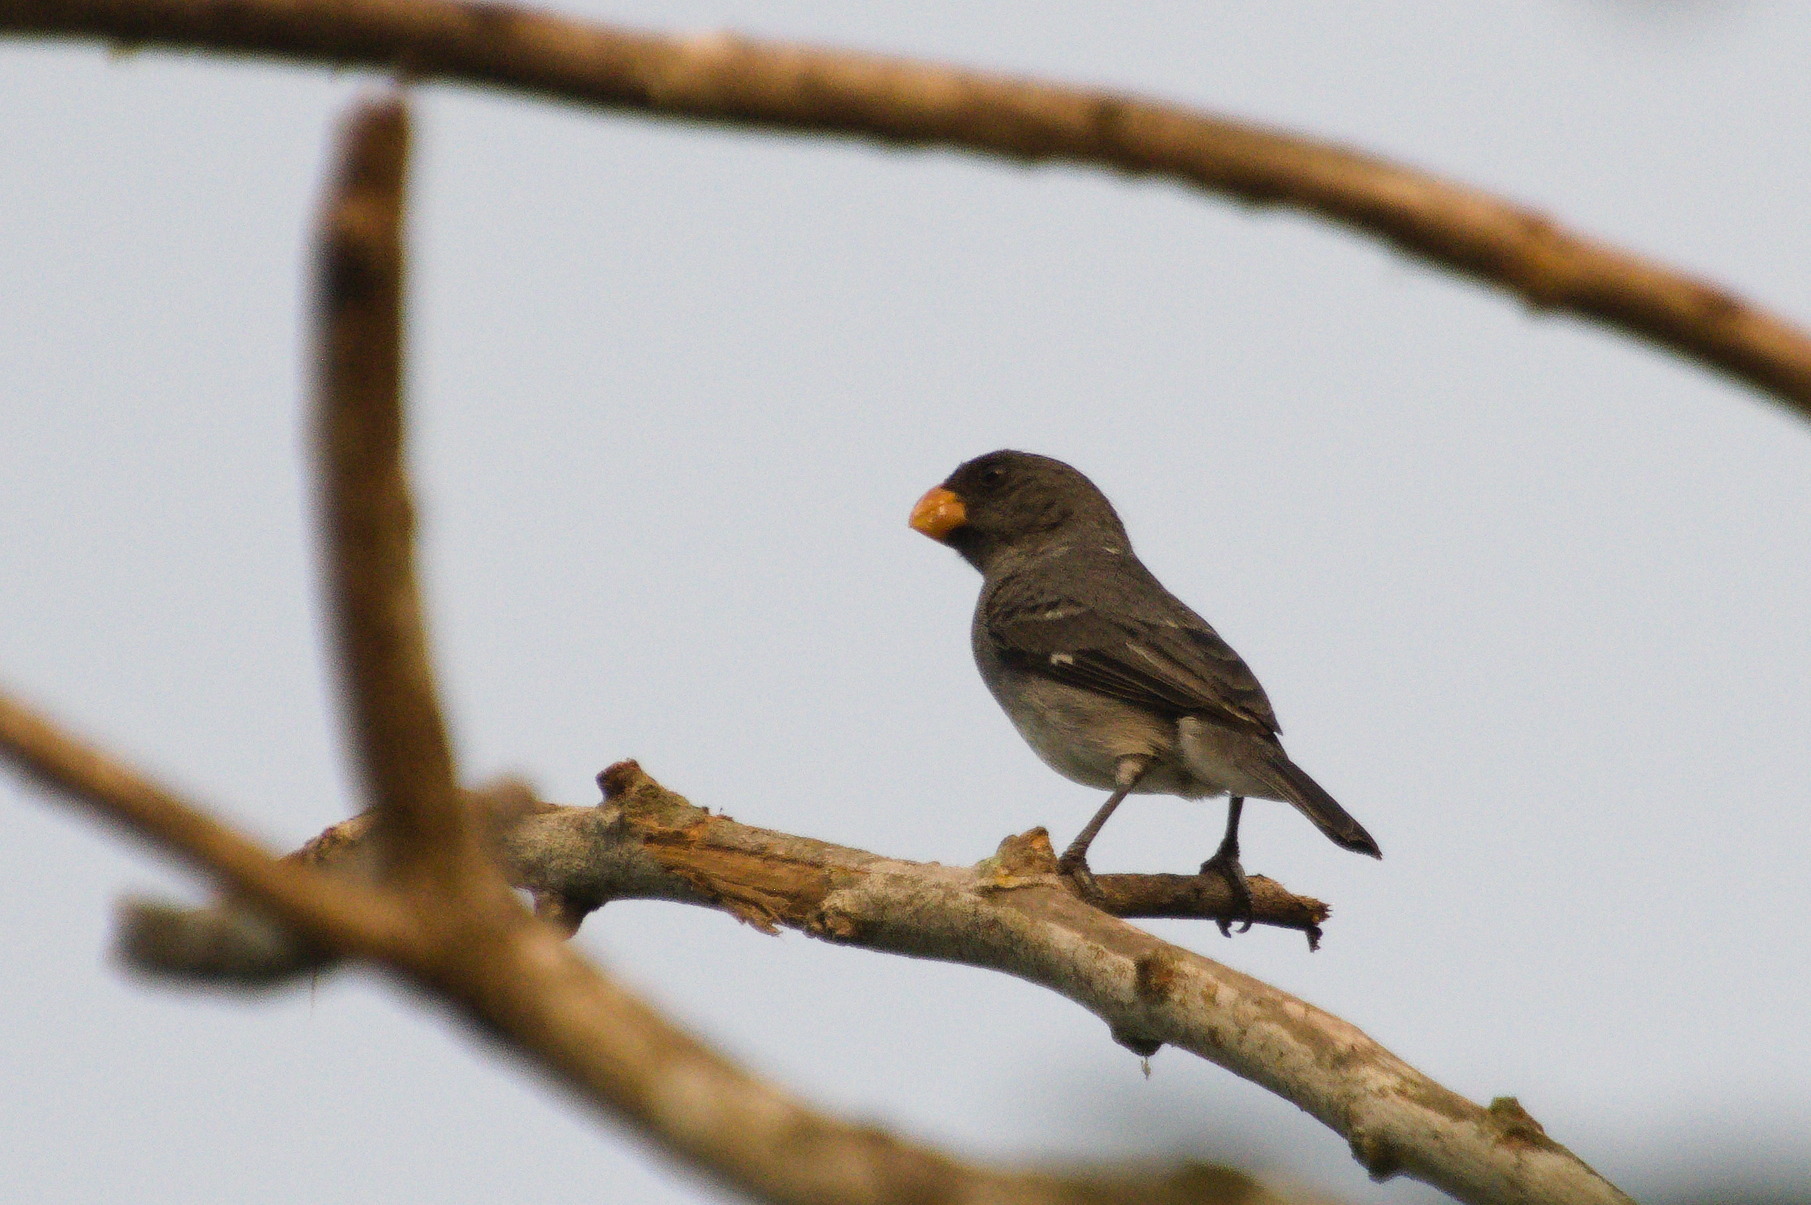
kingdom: Animalia
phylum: Chordata
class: Aves
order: Passeriformes
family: Thraupidae
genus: Sporophila
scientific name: Sporophila intermedia
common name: Grey seedeater
